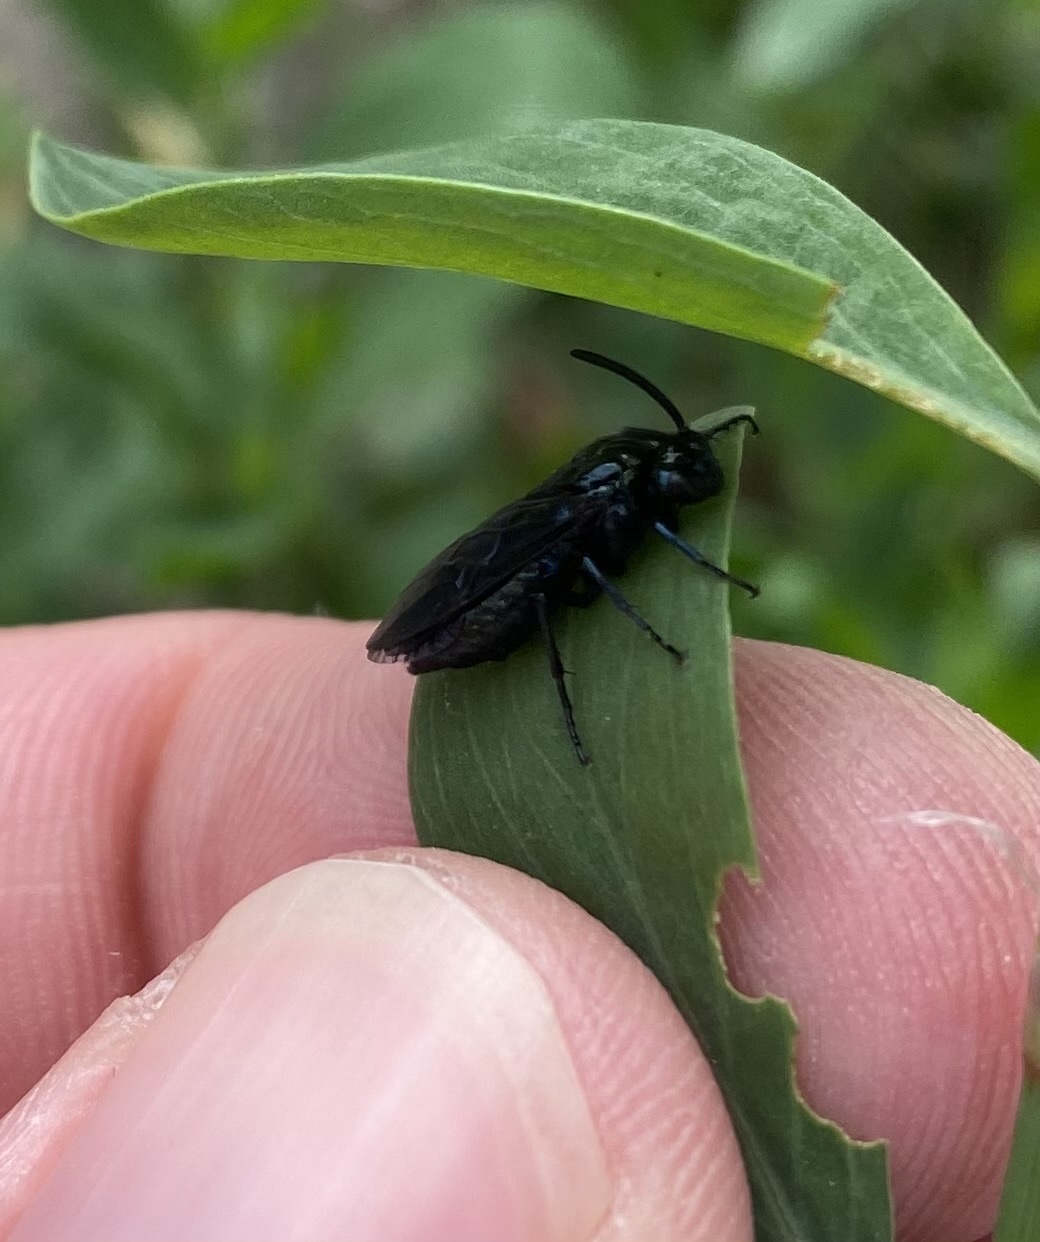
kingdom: Animalia
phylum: Arthropoda
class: Insecta
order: Hymenoptera
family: Argidae
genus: Arge
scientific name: Arge berberidis
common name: Berberis sawfly
